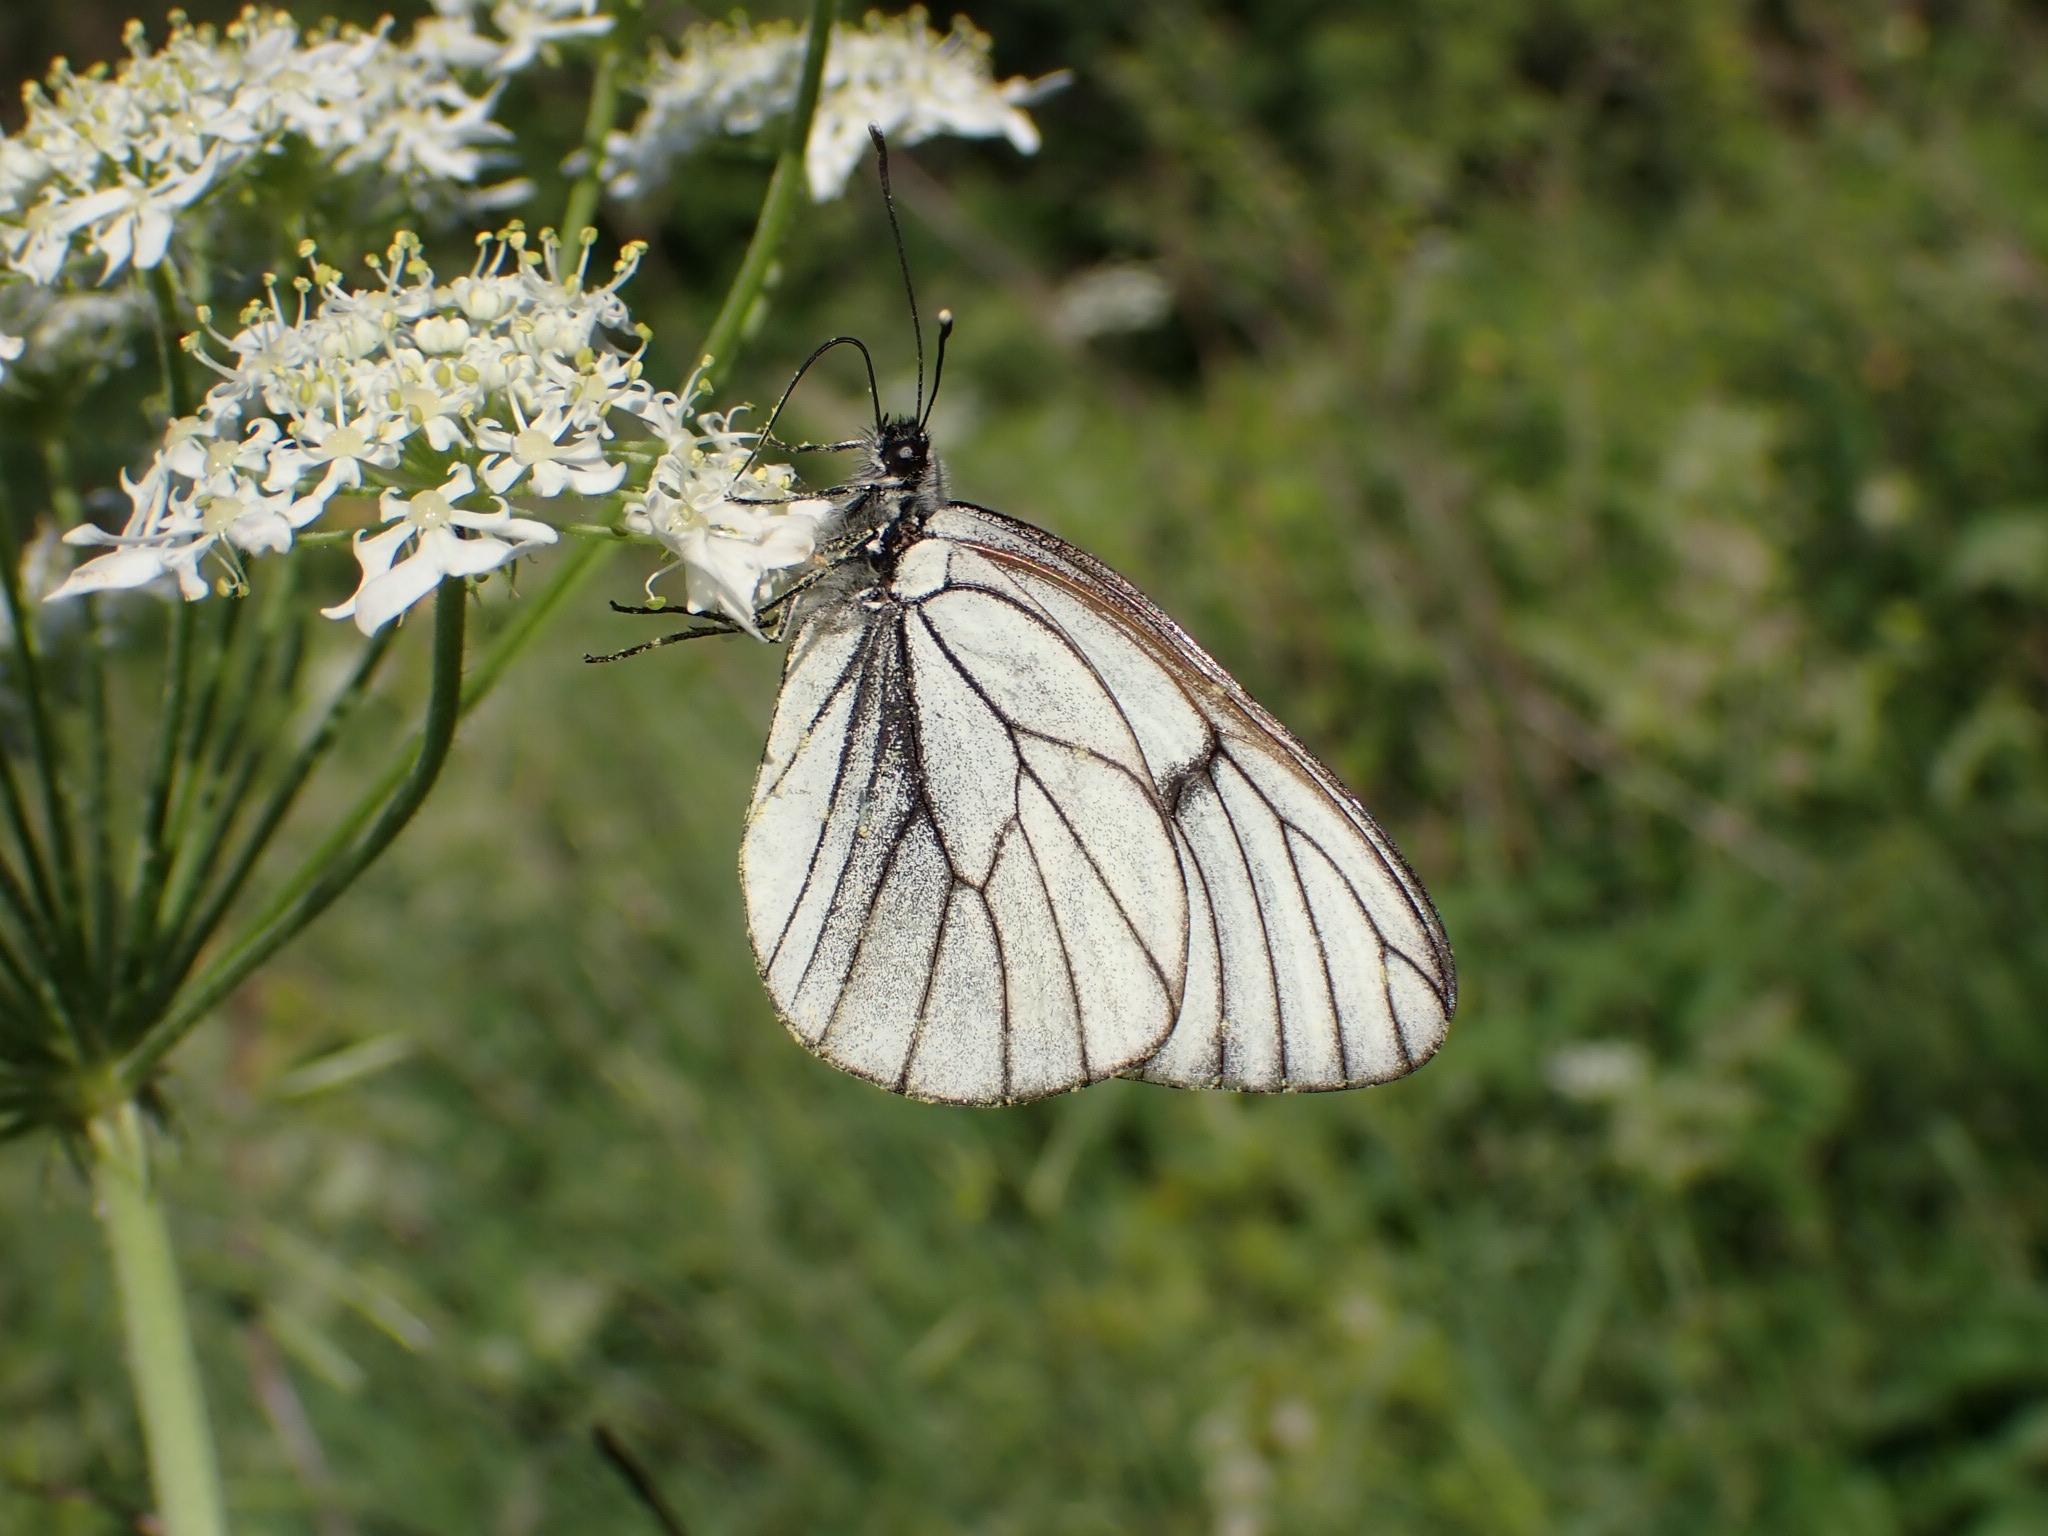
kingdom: Animalia
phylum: Arthropoda
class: Insecta
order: Lepidoptera
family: Pieridae
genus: Aporia
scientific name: Aporia crataegi
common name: Black-veined white
